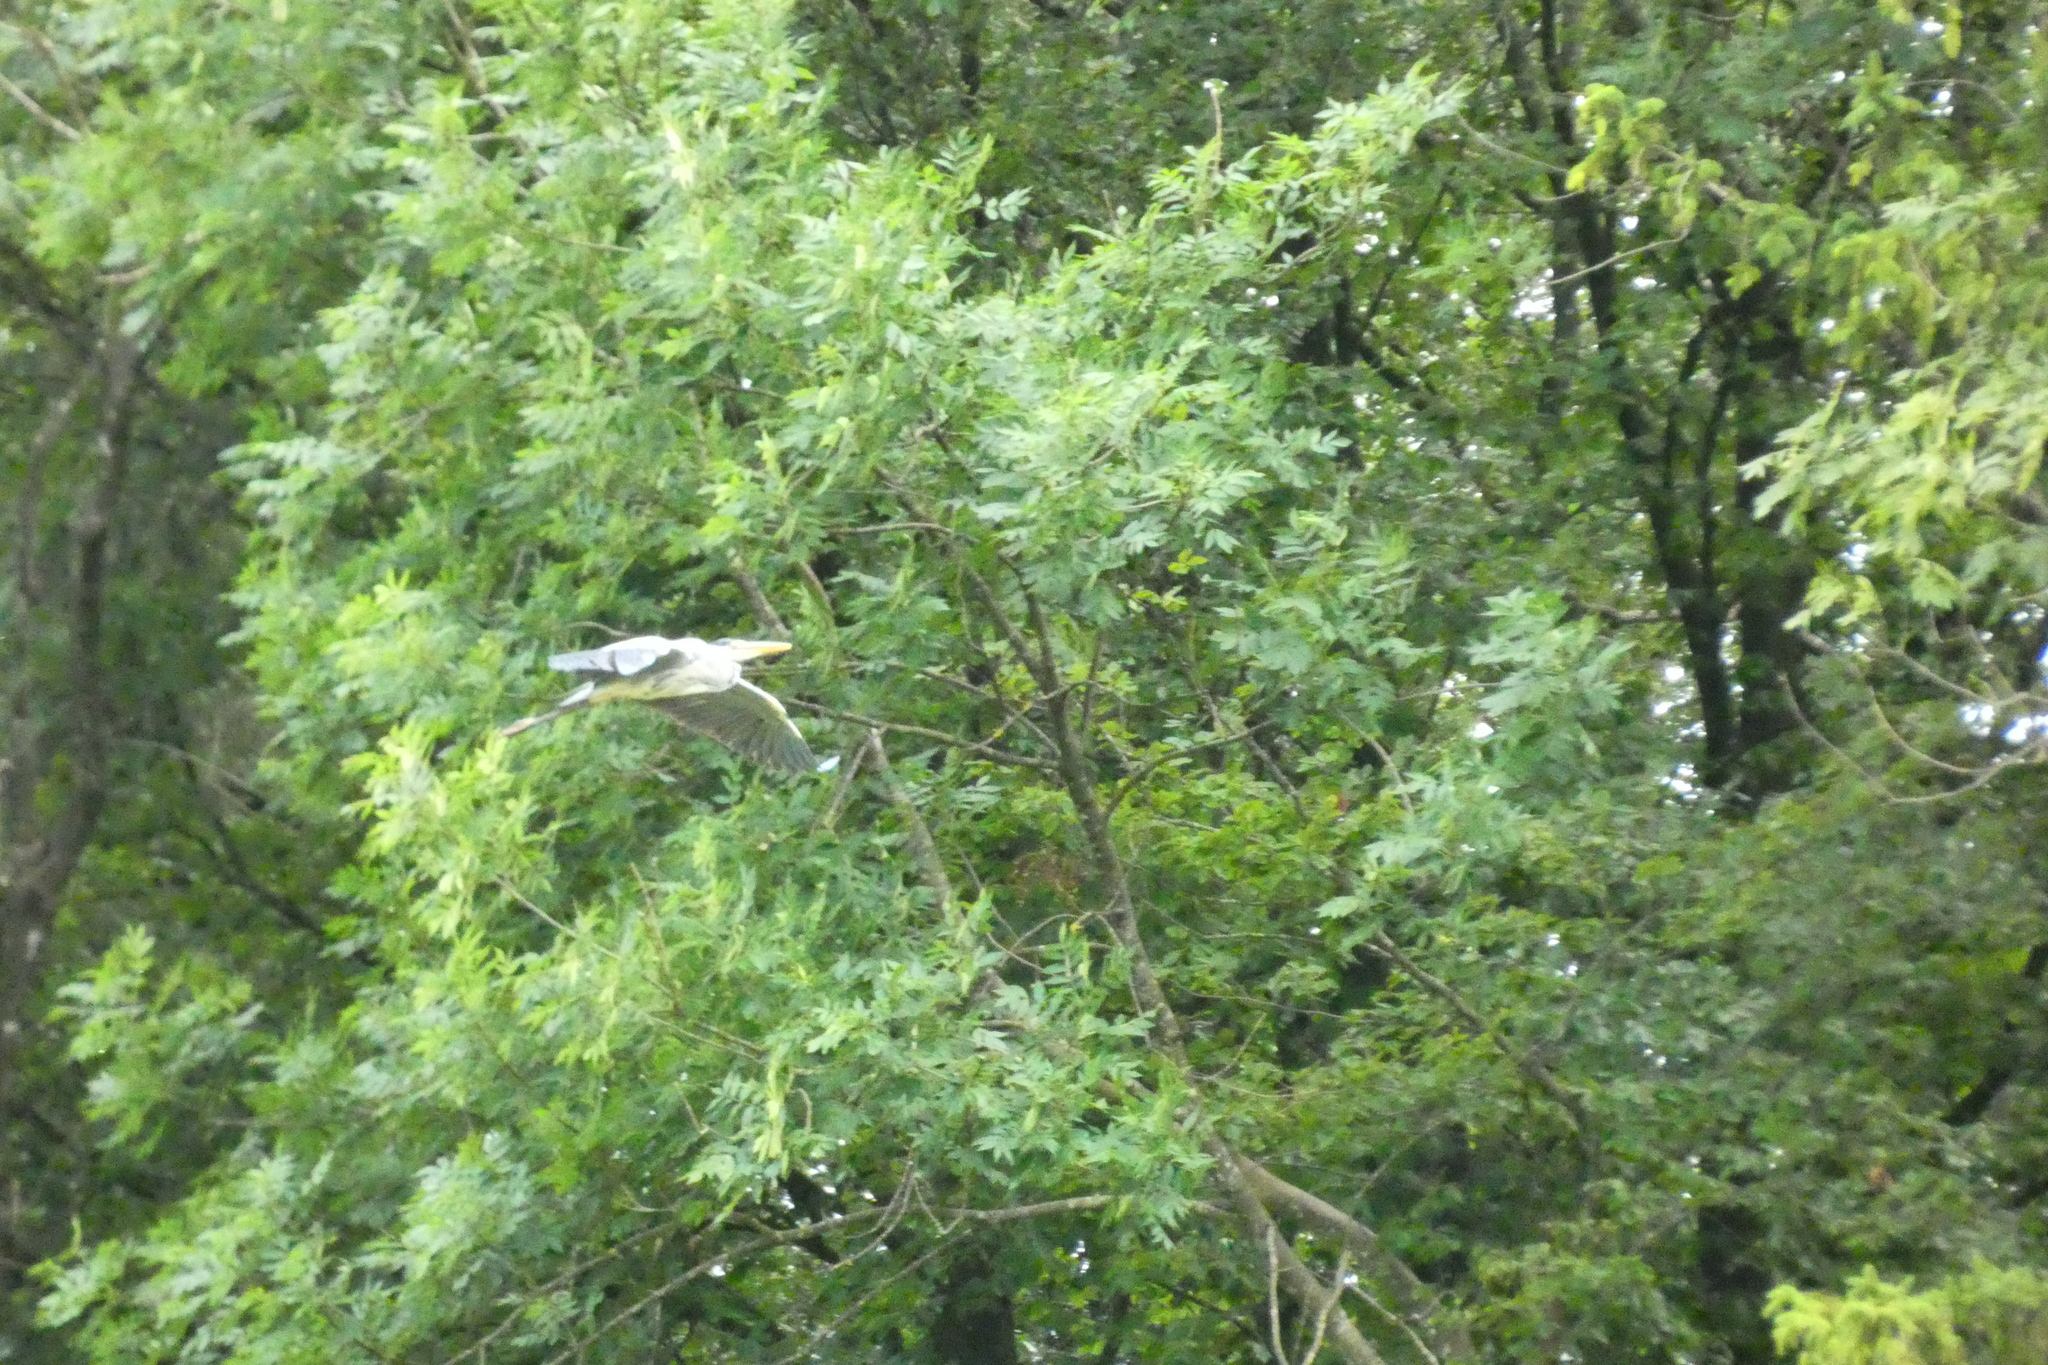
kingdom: Animalia
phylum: Chordata
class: Aves
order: Pelecaniformes
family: Ardeidae
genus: Ardea
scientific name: Ardea cinerea
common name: Grey heron
